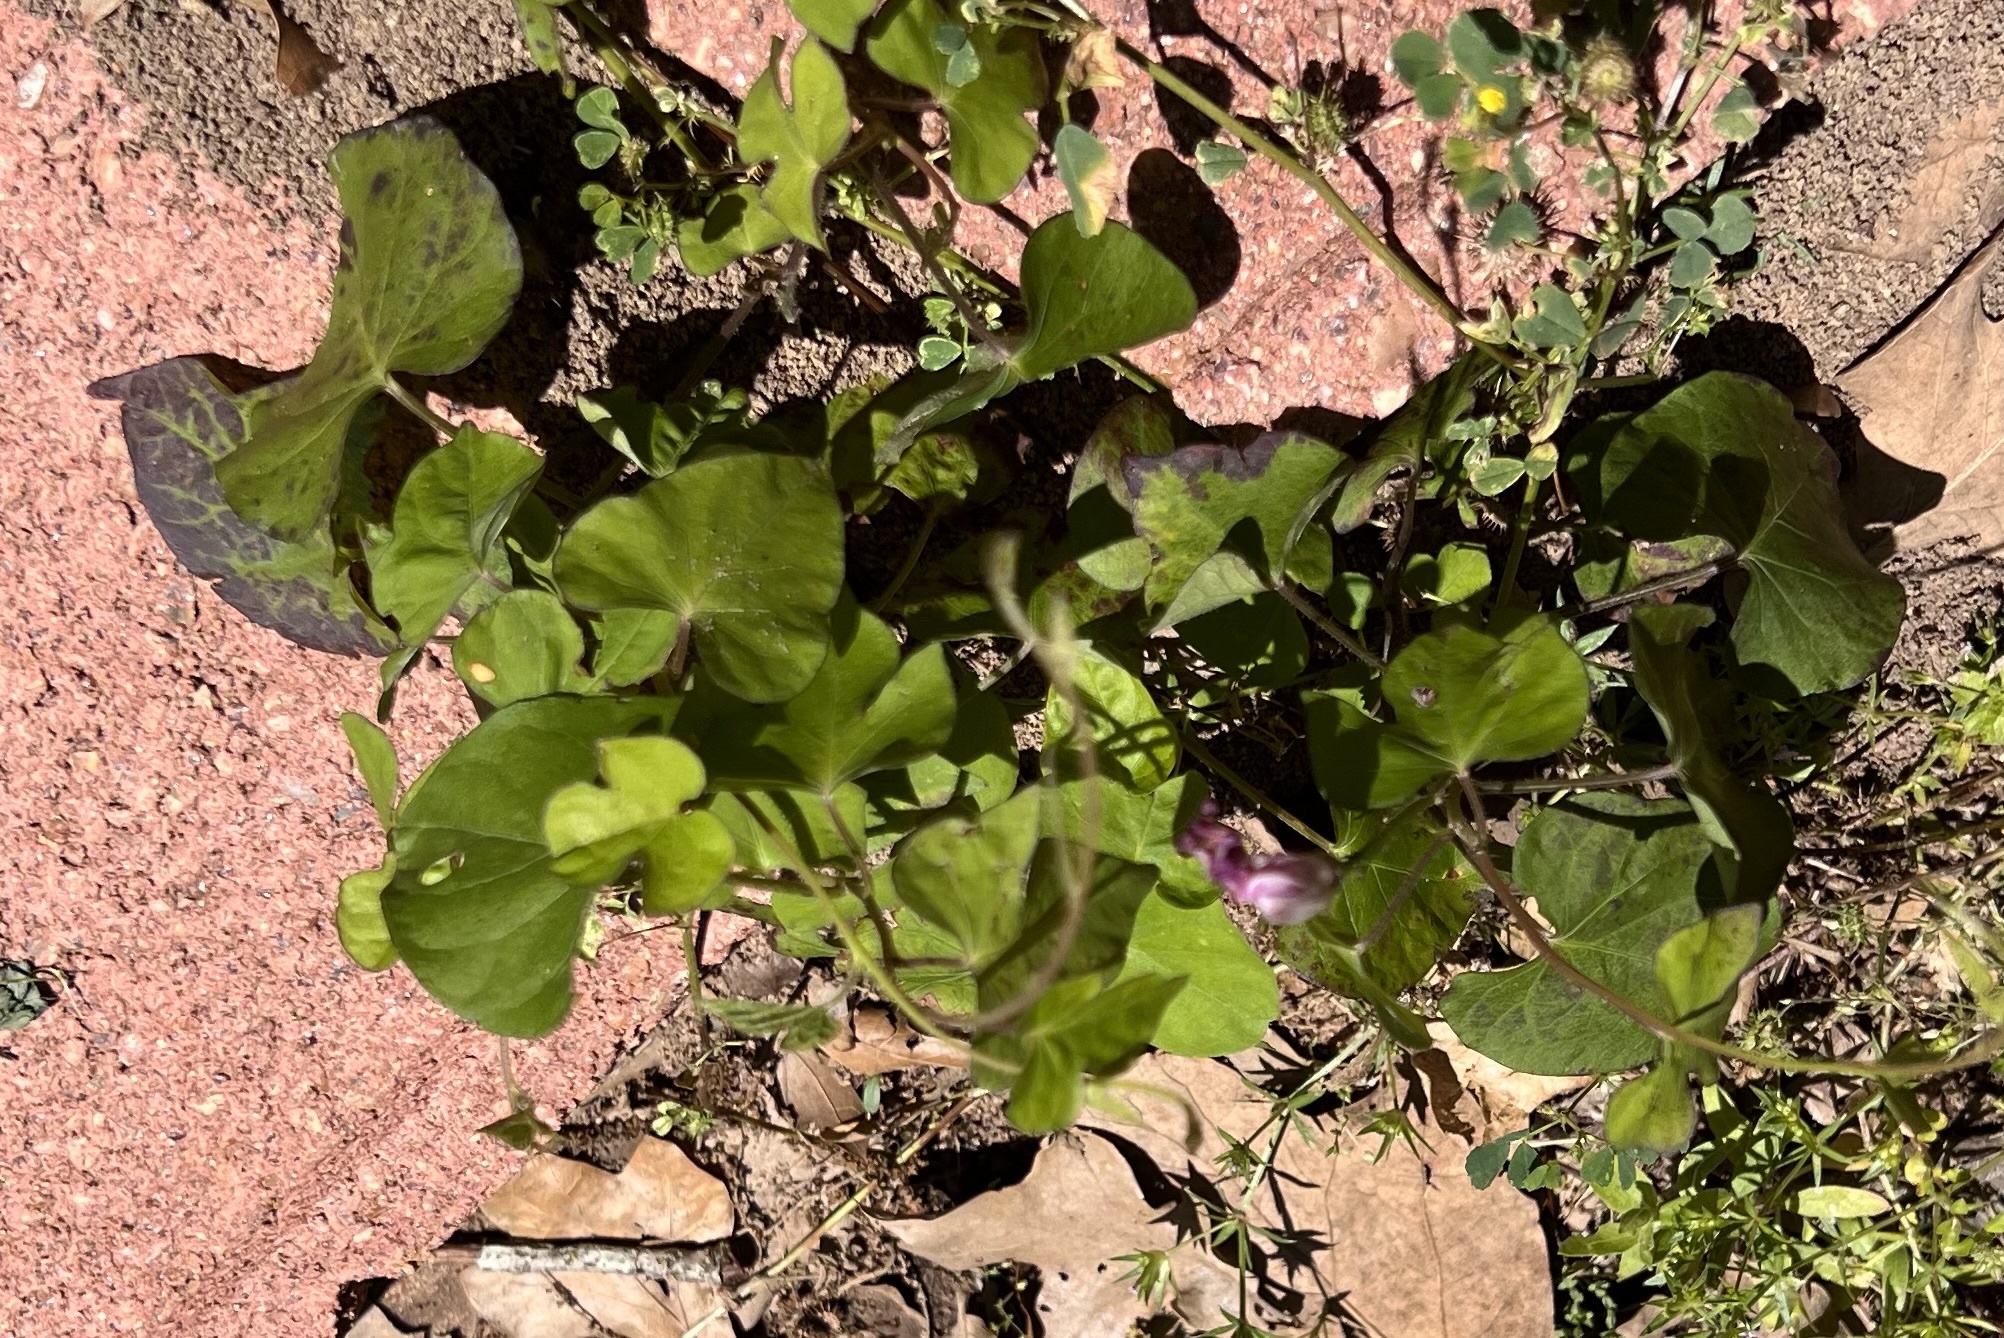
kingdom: Plantae
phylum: Tracheophyta
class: Magnoliopsida
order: Solanales
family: Convolvulaceae
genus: Ipomoea
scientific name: Ipomoea cordatotriloba
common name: Cotton morning glory
